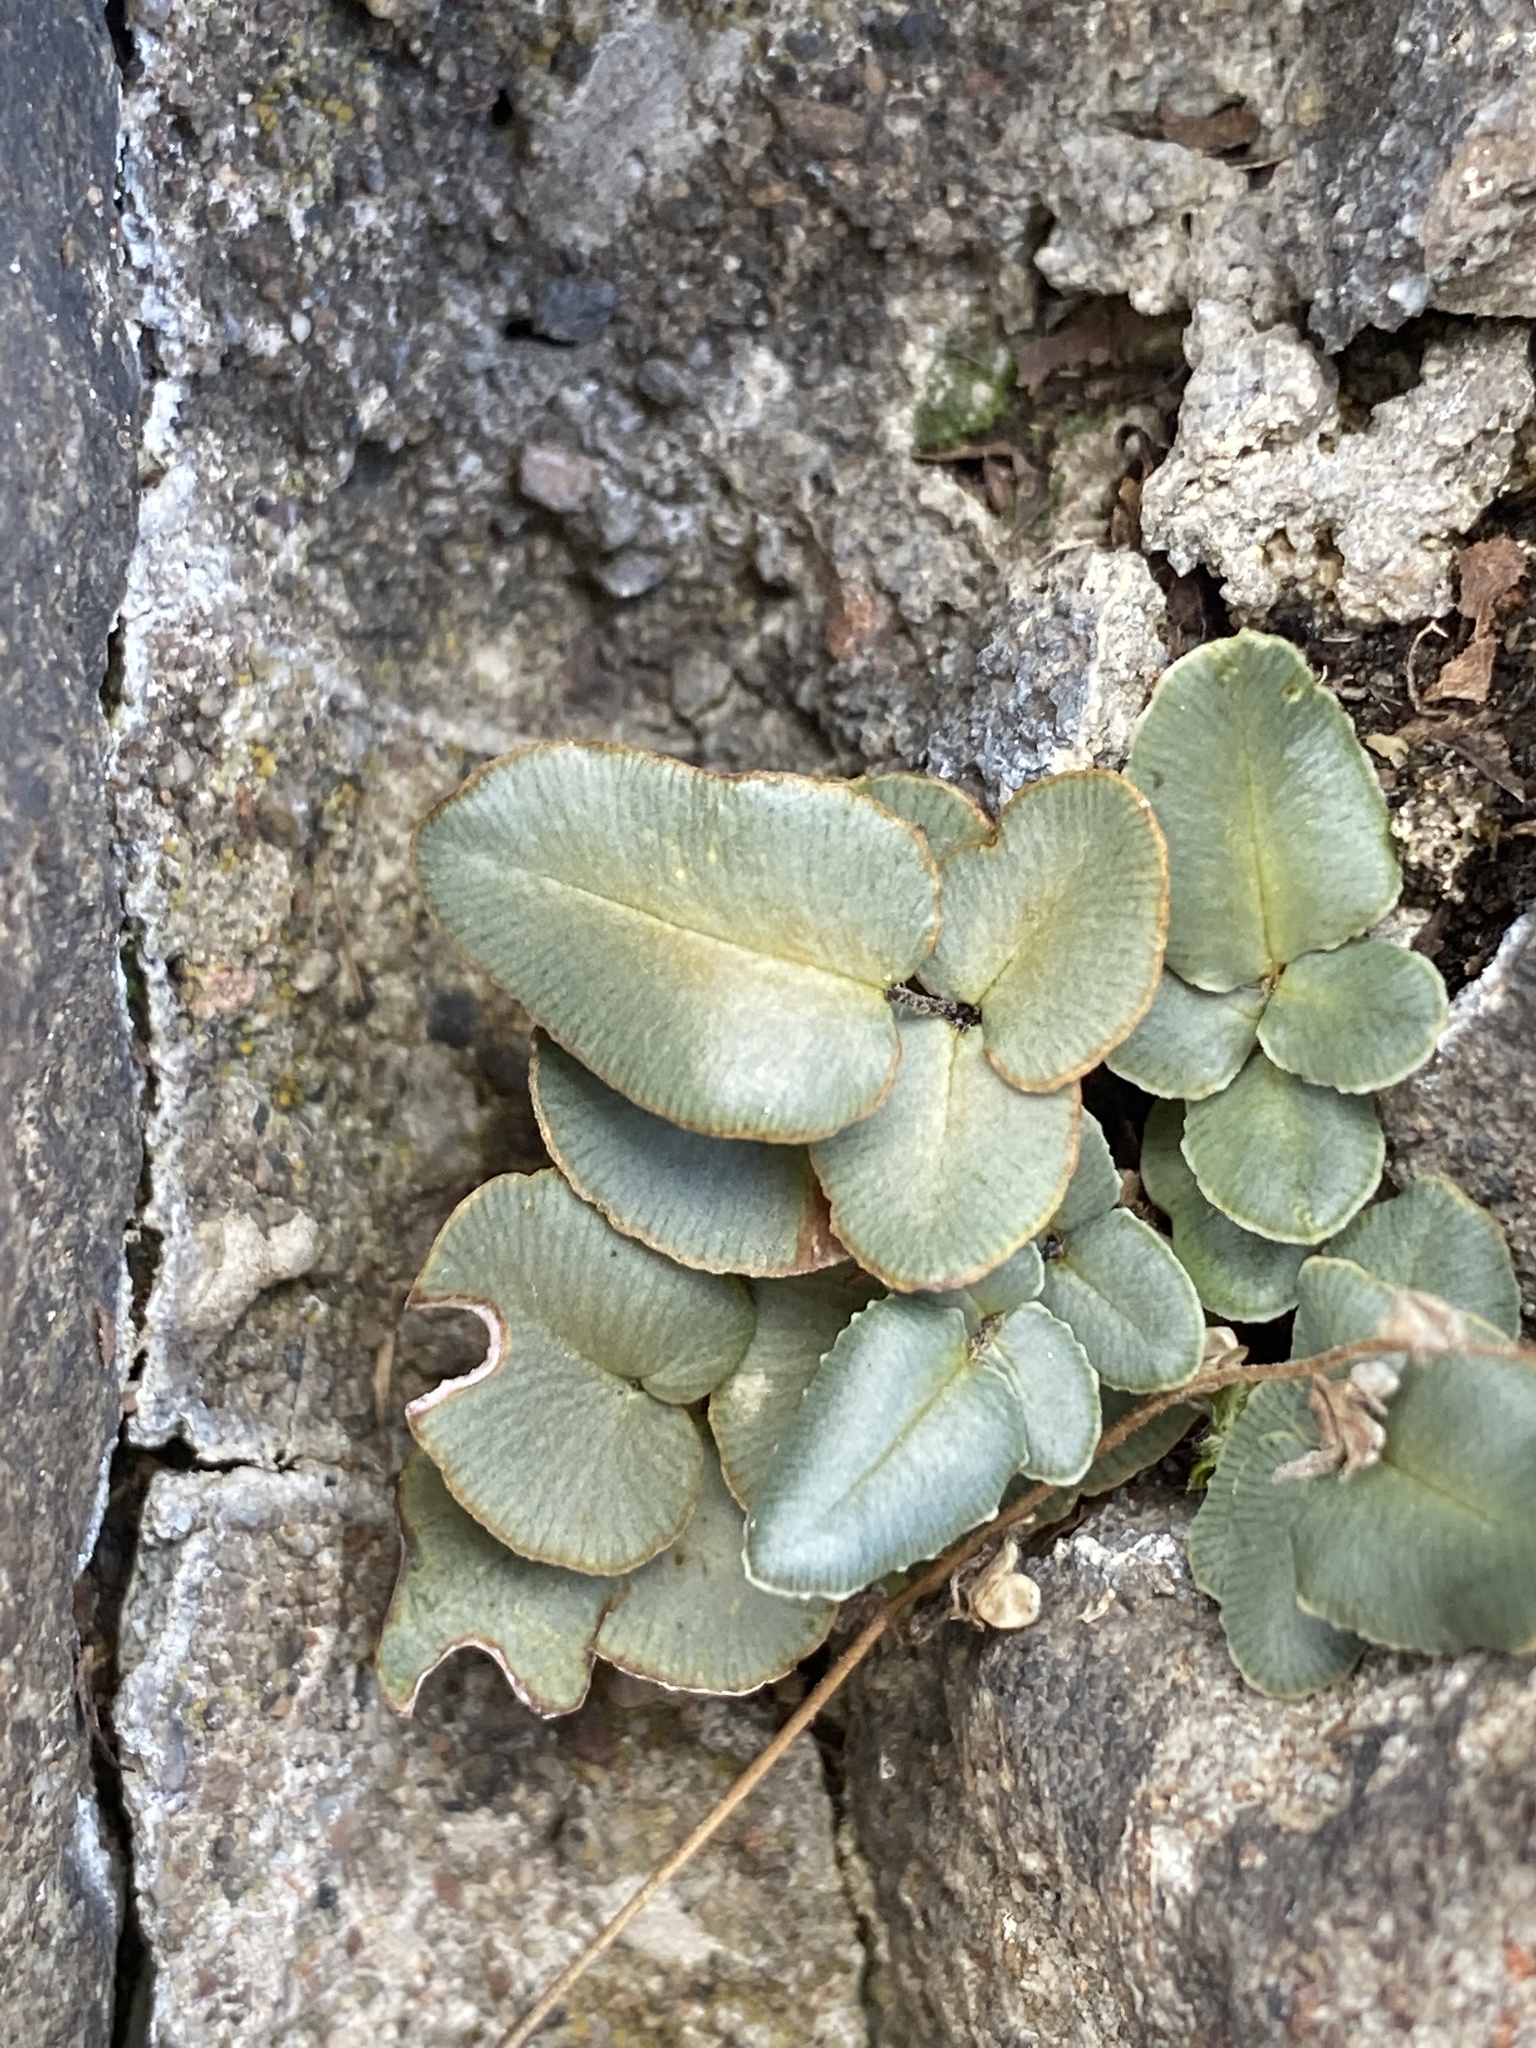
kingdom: Plantae
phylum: Tracheophyta
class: Polypodiopsida
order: Polypodiales
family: Pteridaceae
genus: Pellaea
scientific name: Pellaea atropurpurea
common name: Hairy cliffbrake
